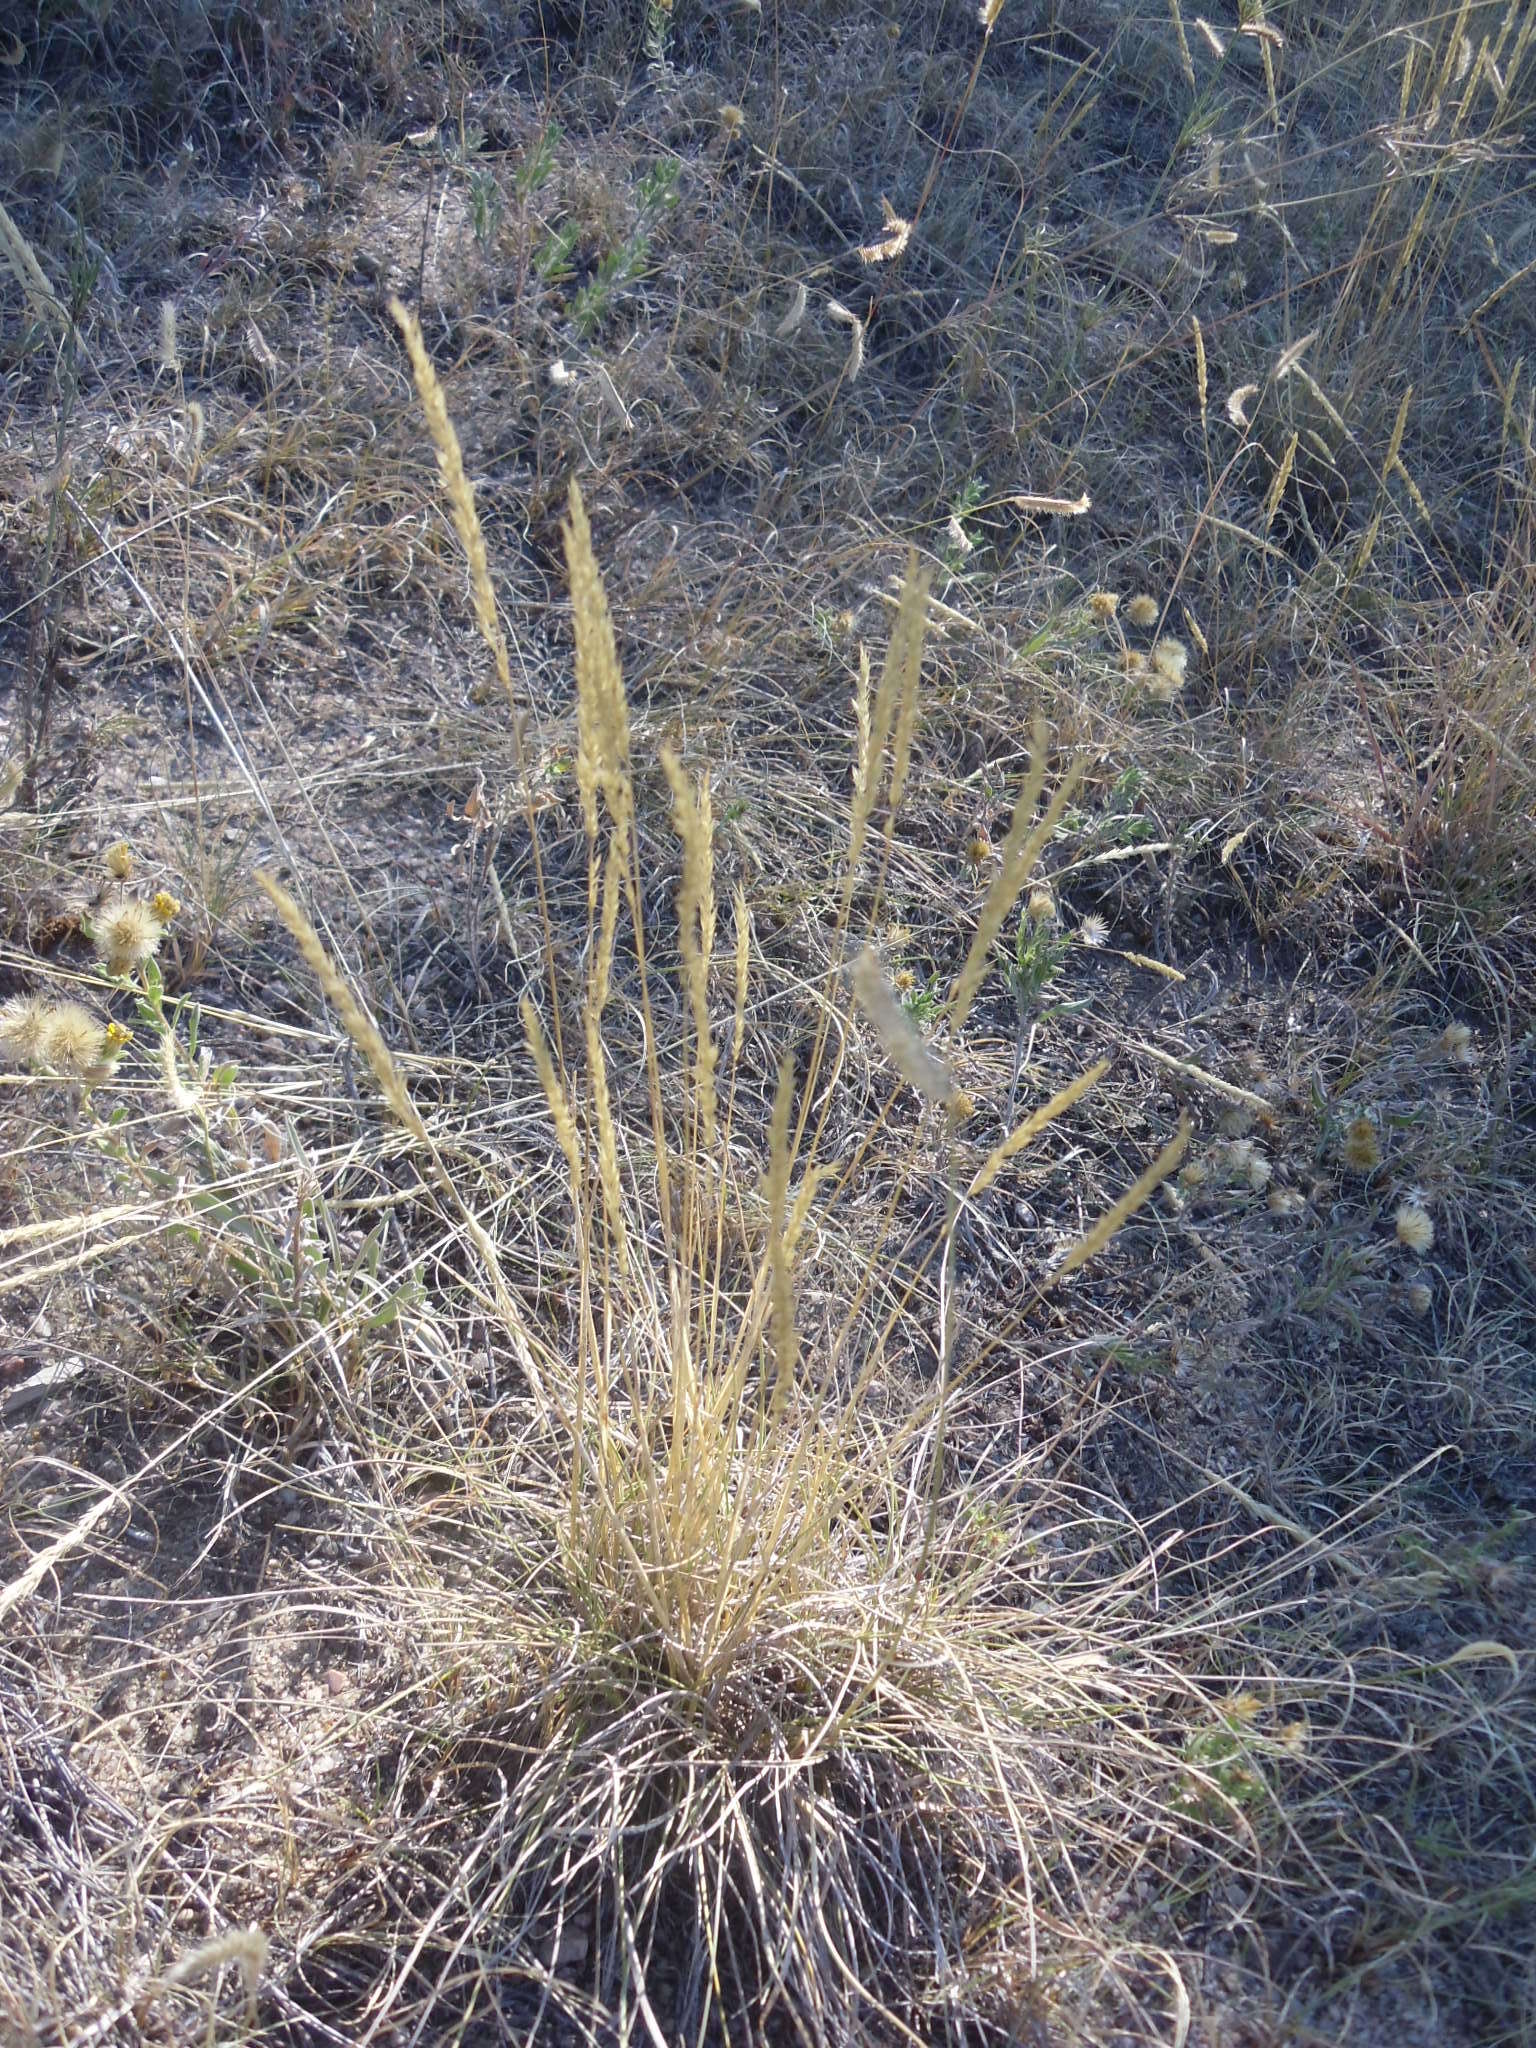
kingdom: Plantae
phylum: Tracheophyta
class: Liliopsida
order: Poales
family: Poaceae
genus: Koeleria
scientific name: Koeleria macrantha
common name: Crested hair-grass
